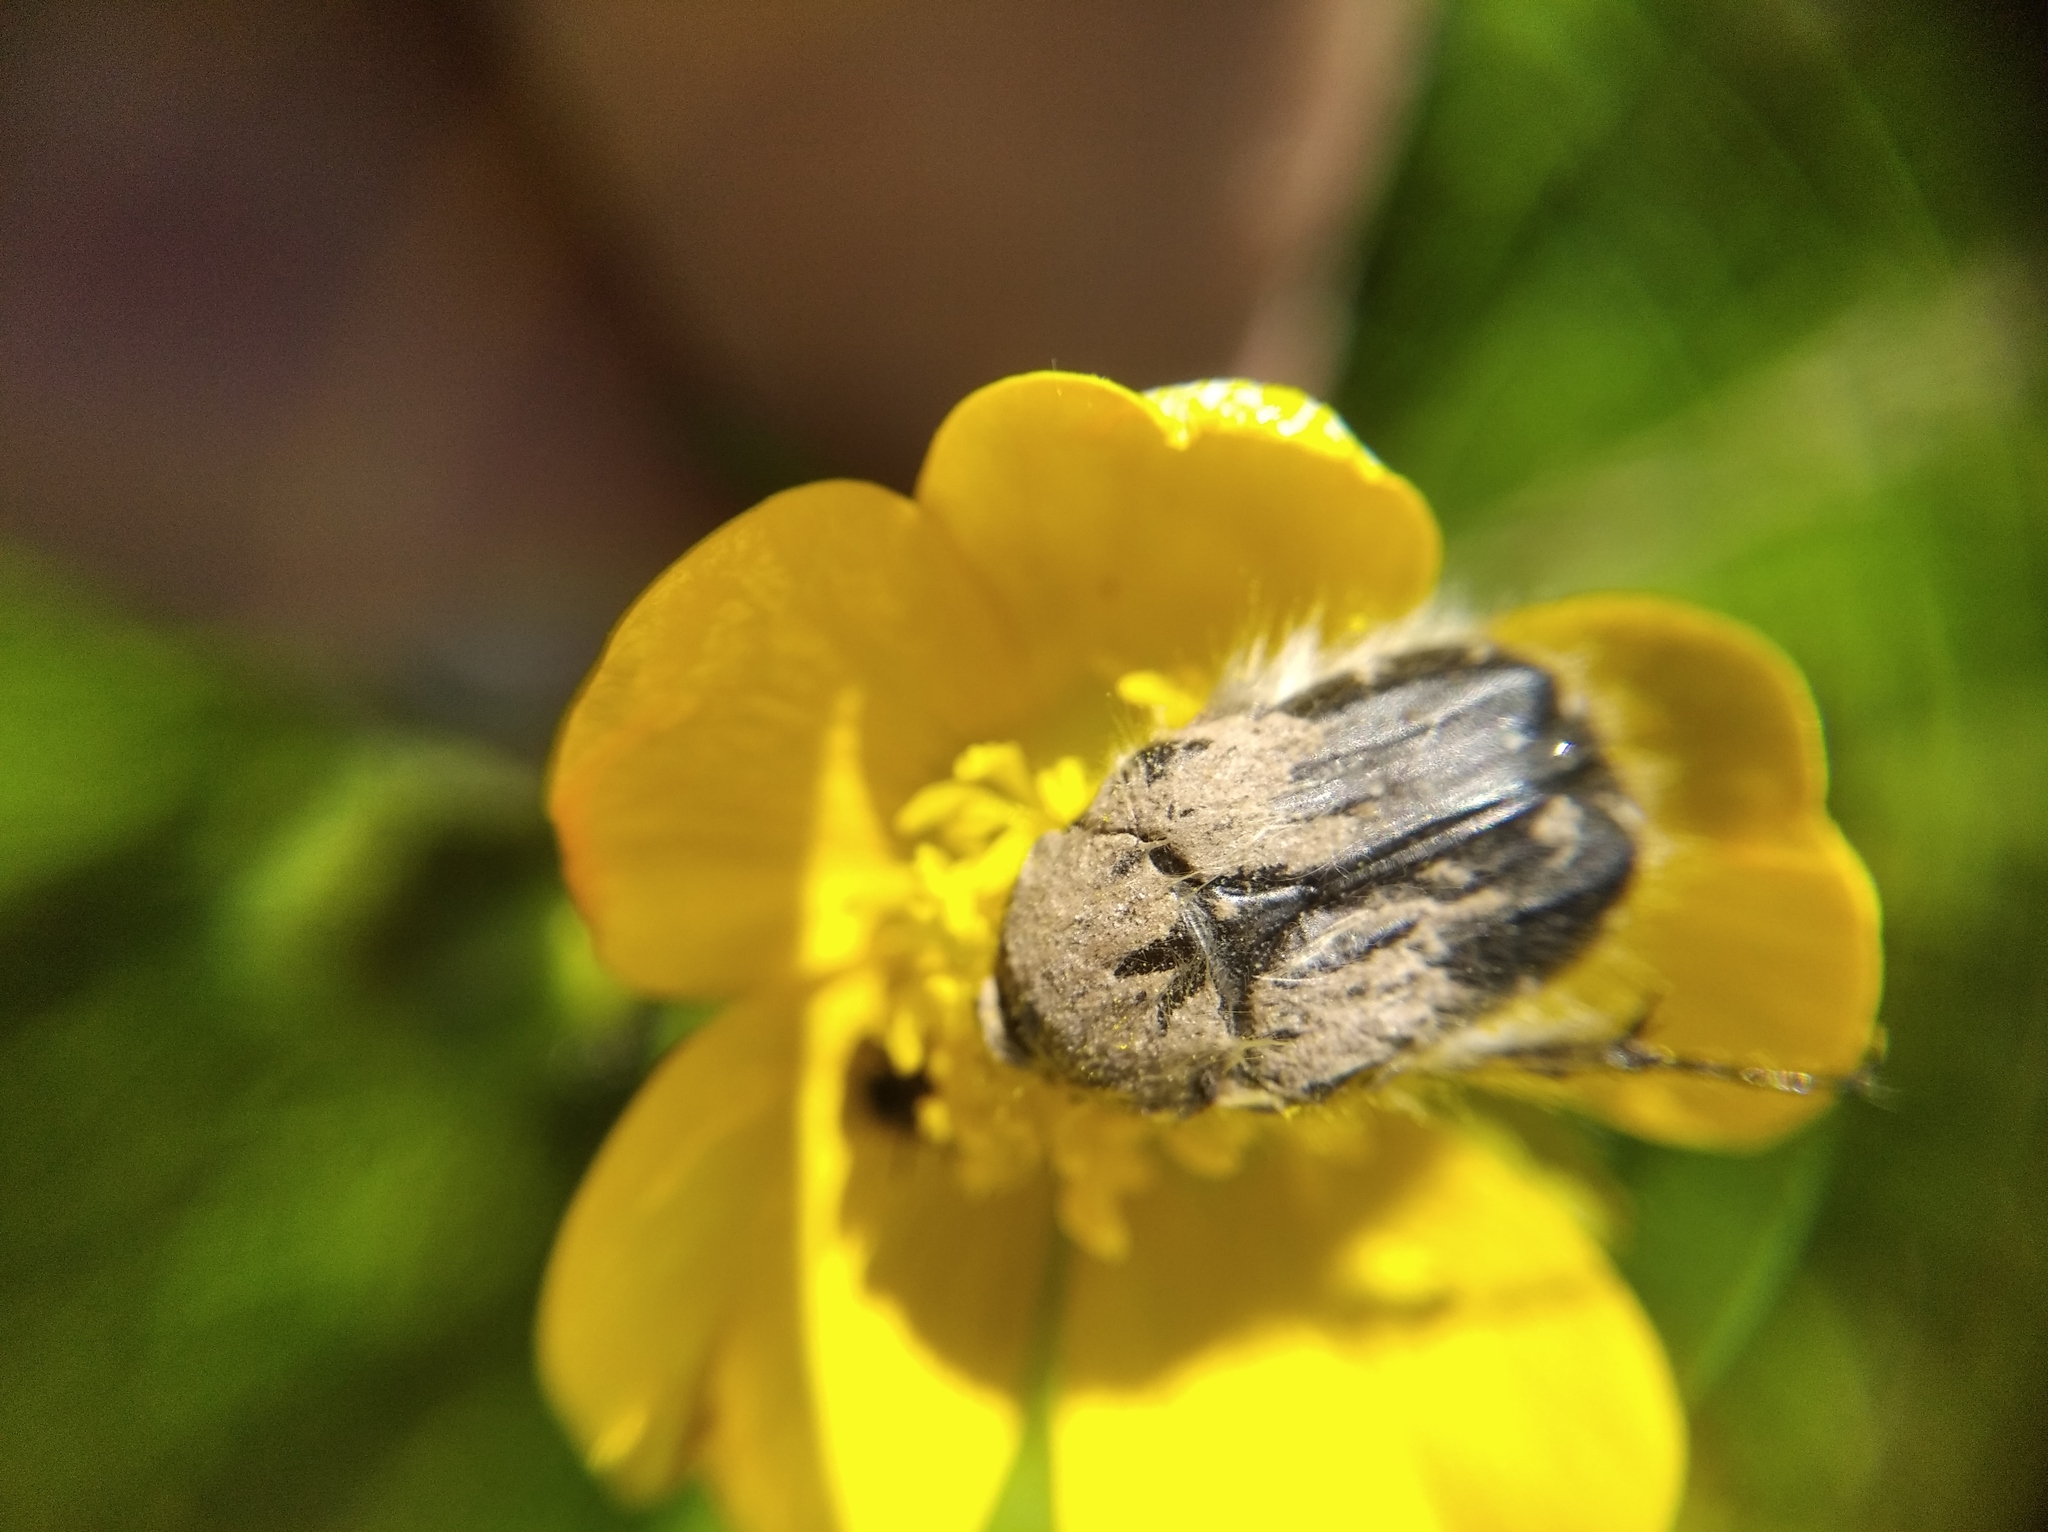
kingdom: Animalia
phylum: Arthropoda
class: Insecta
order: Coleoptera
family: Scarabaeidae
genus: Tropinota
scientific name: Tropinota hirta
